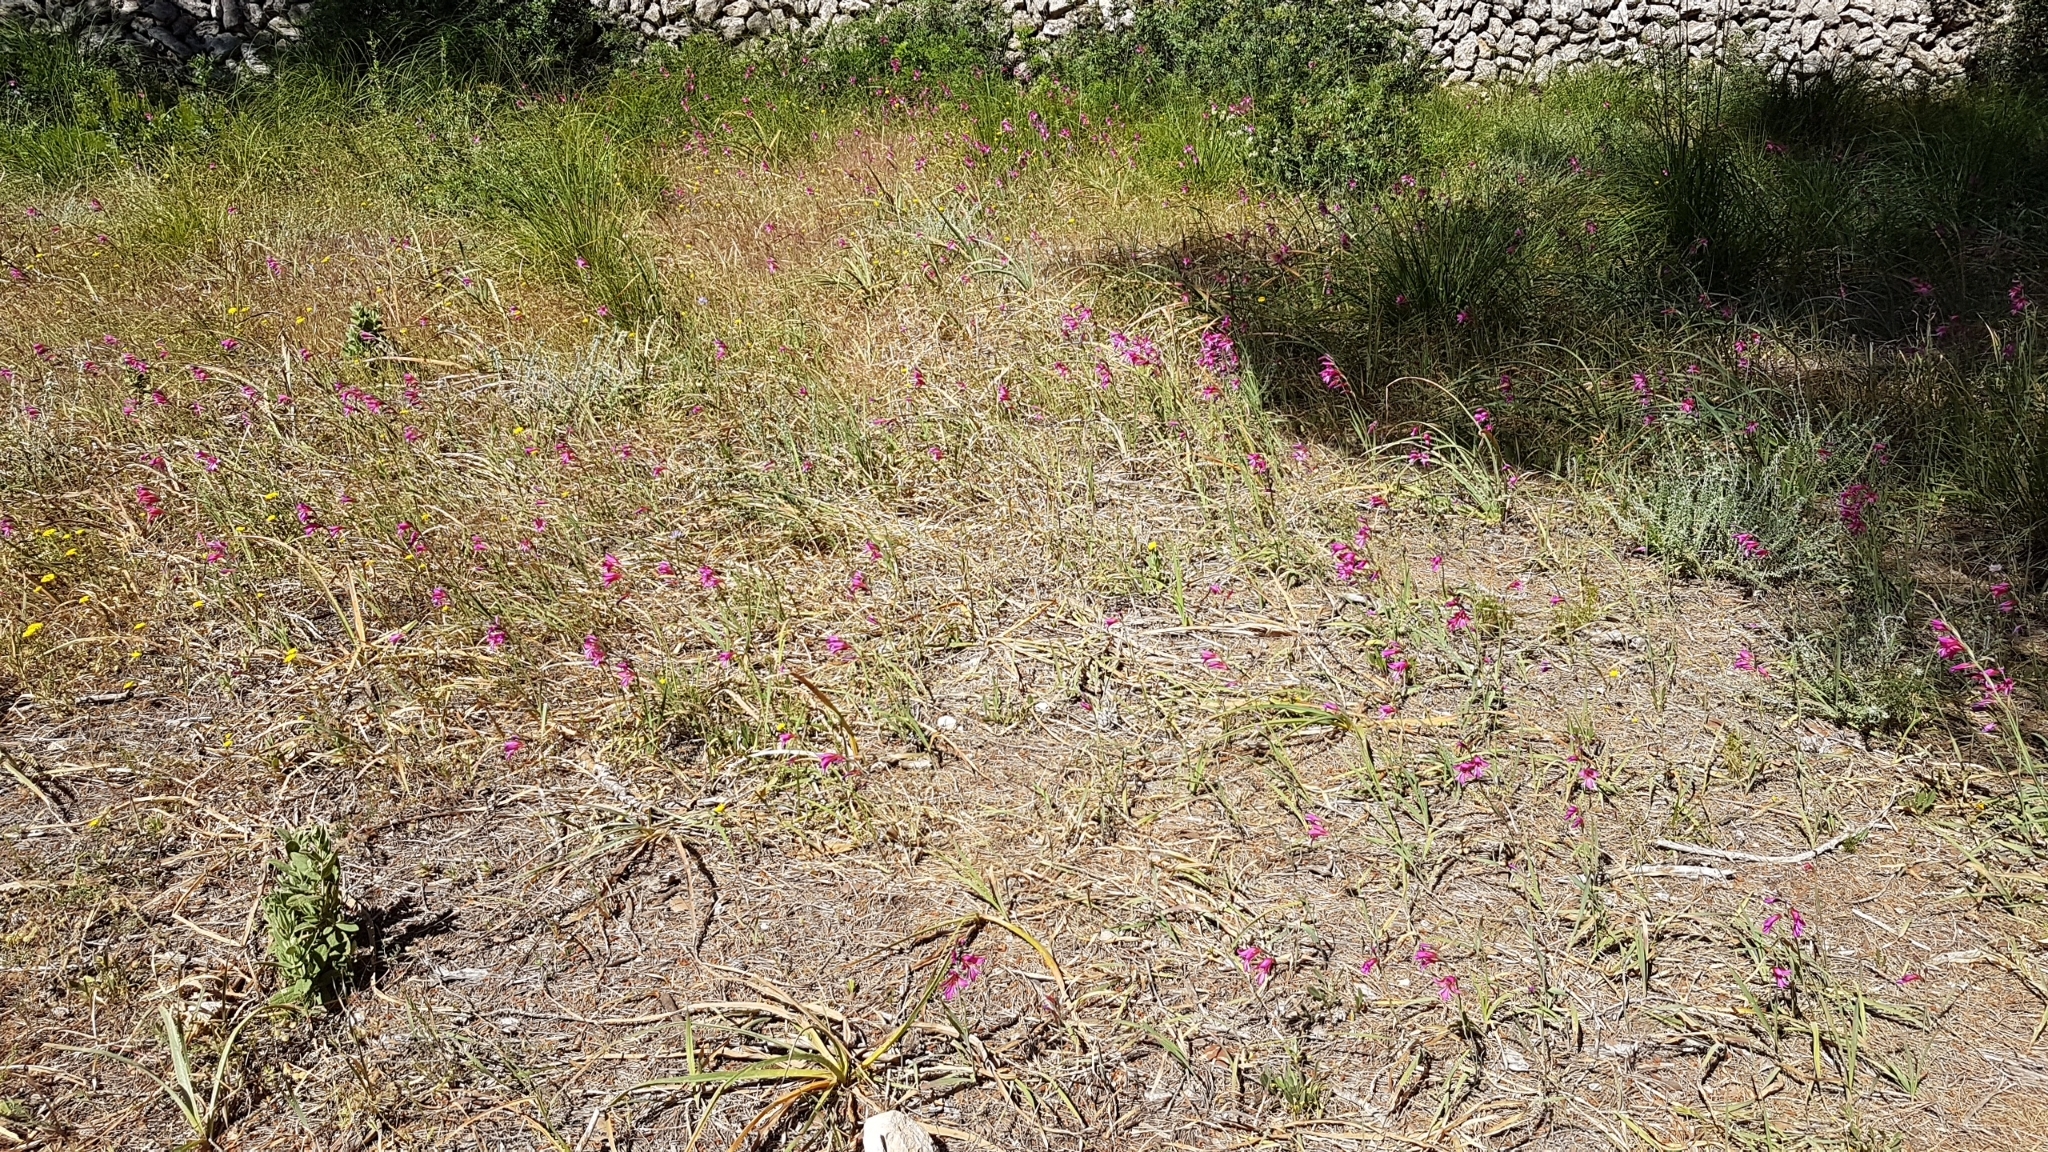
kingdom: Plantae
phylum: Tracheophyta
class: Liliopsida
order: Asparagales
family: Iridaceae
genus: Gladiolus
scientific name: Gladiolus italicus
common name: Field gladiolus
